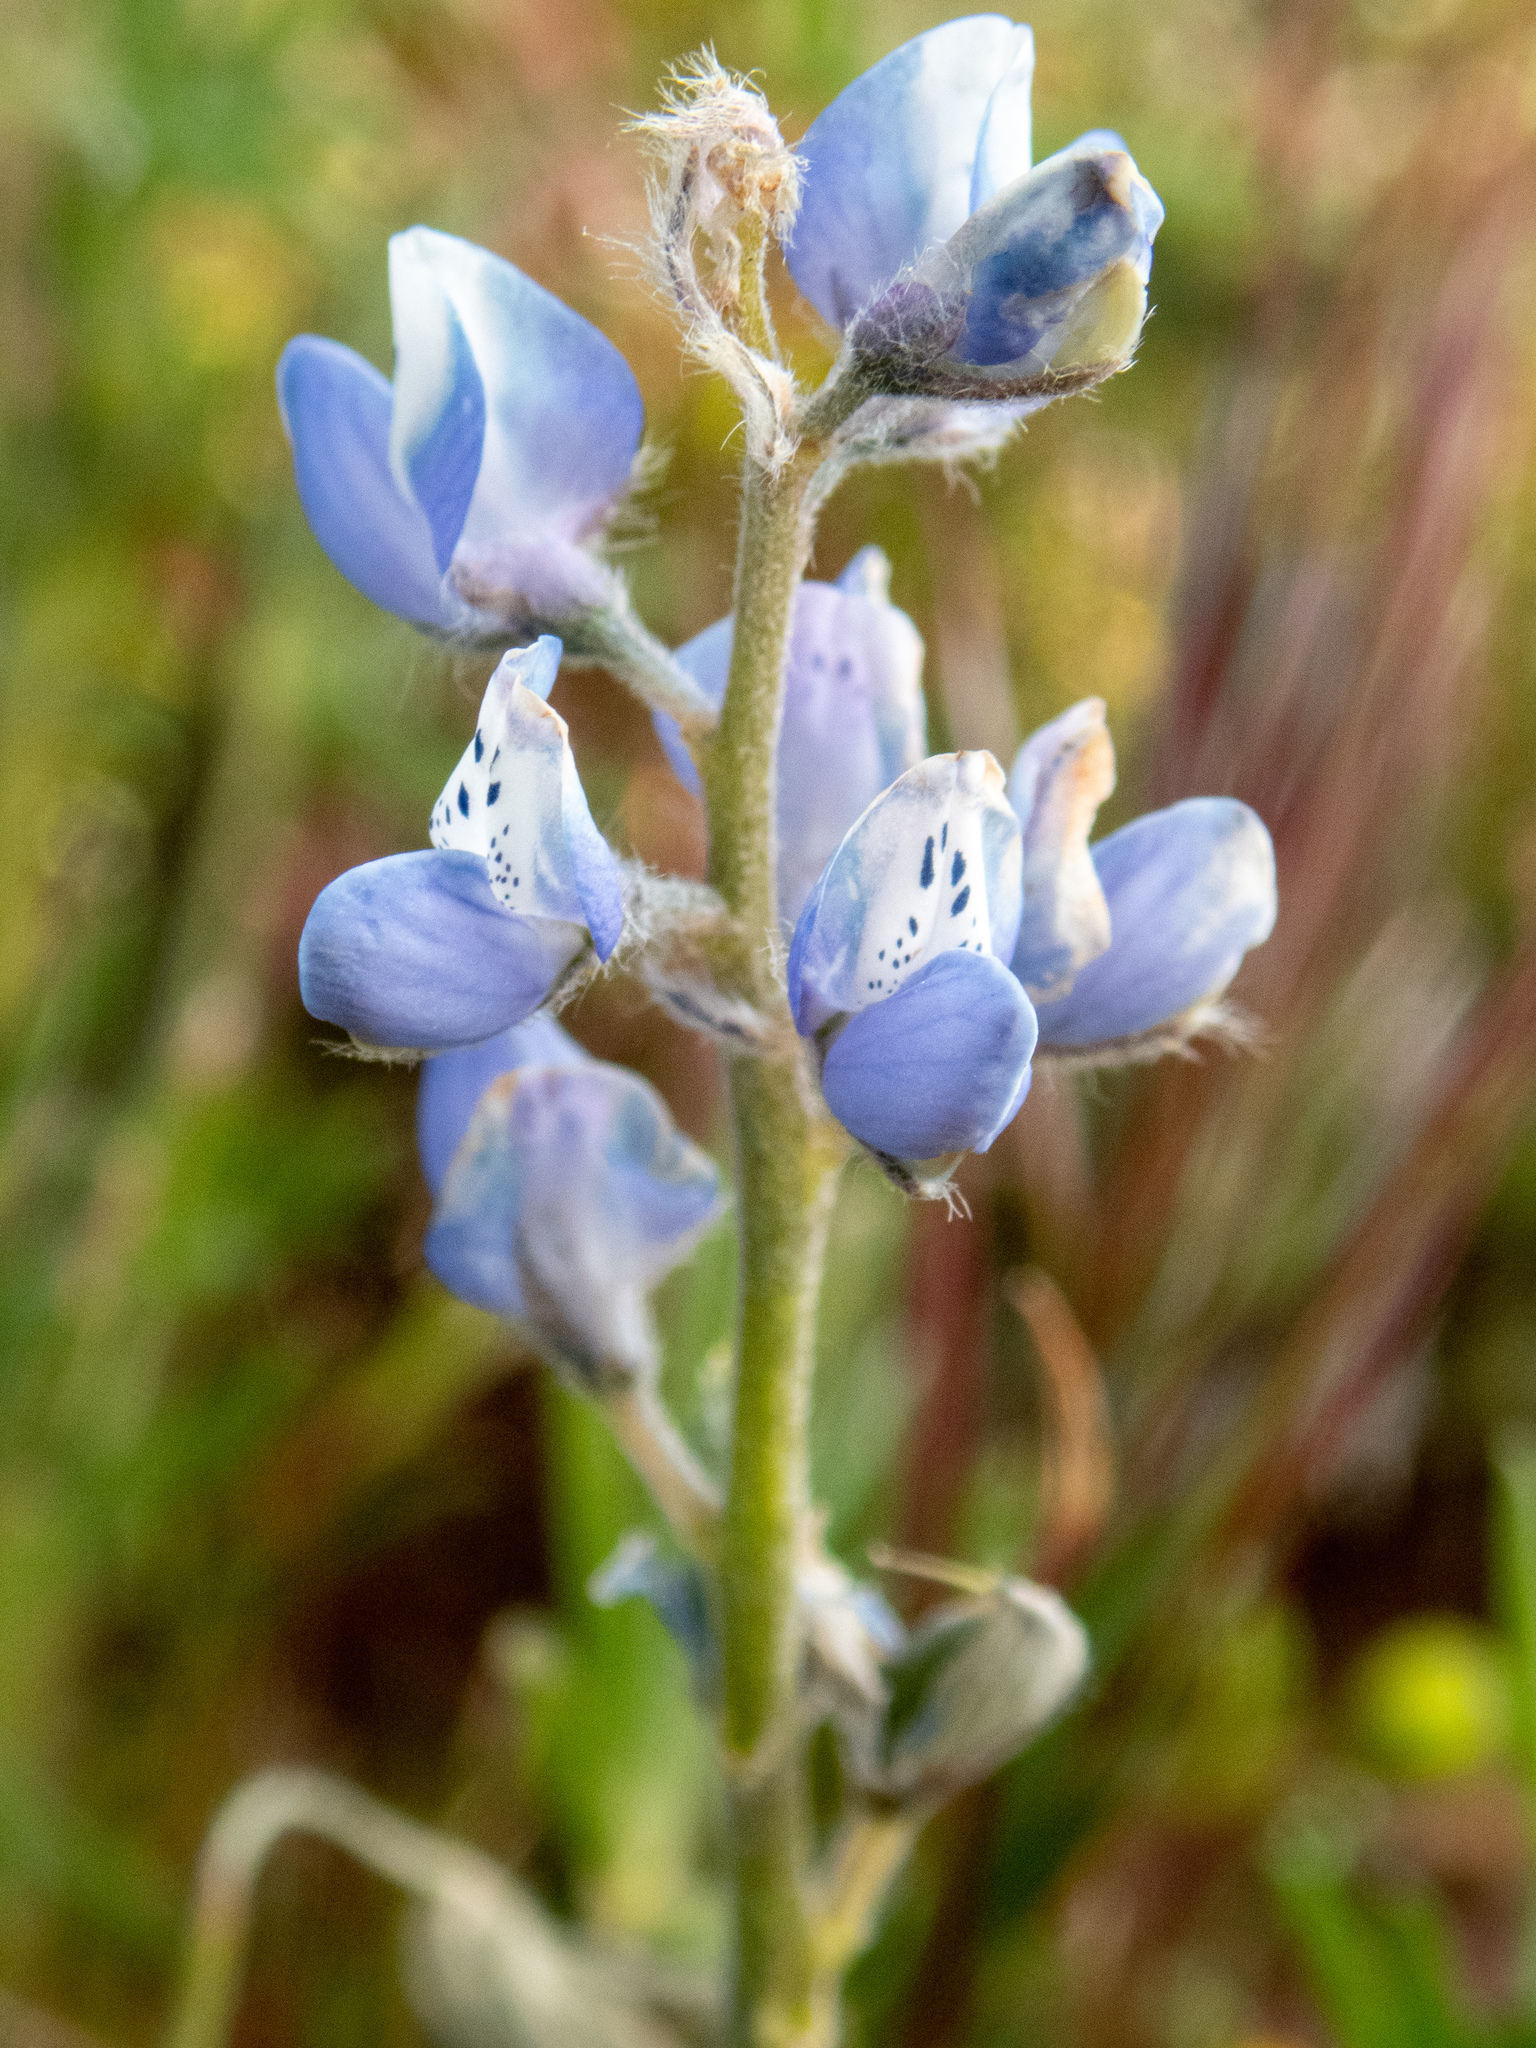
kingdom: Plantae
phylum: Tracheophyta
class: Magnoliopsida
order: Fabales
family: Fabaceae
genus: Lupinus
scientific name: Lupinus bicolor
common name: Miniature lupine
